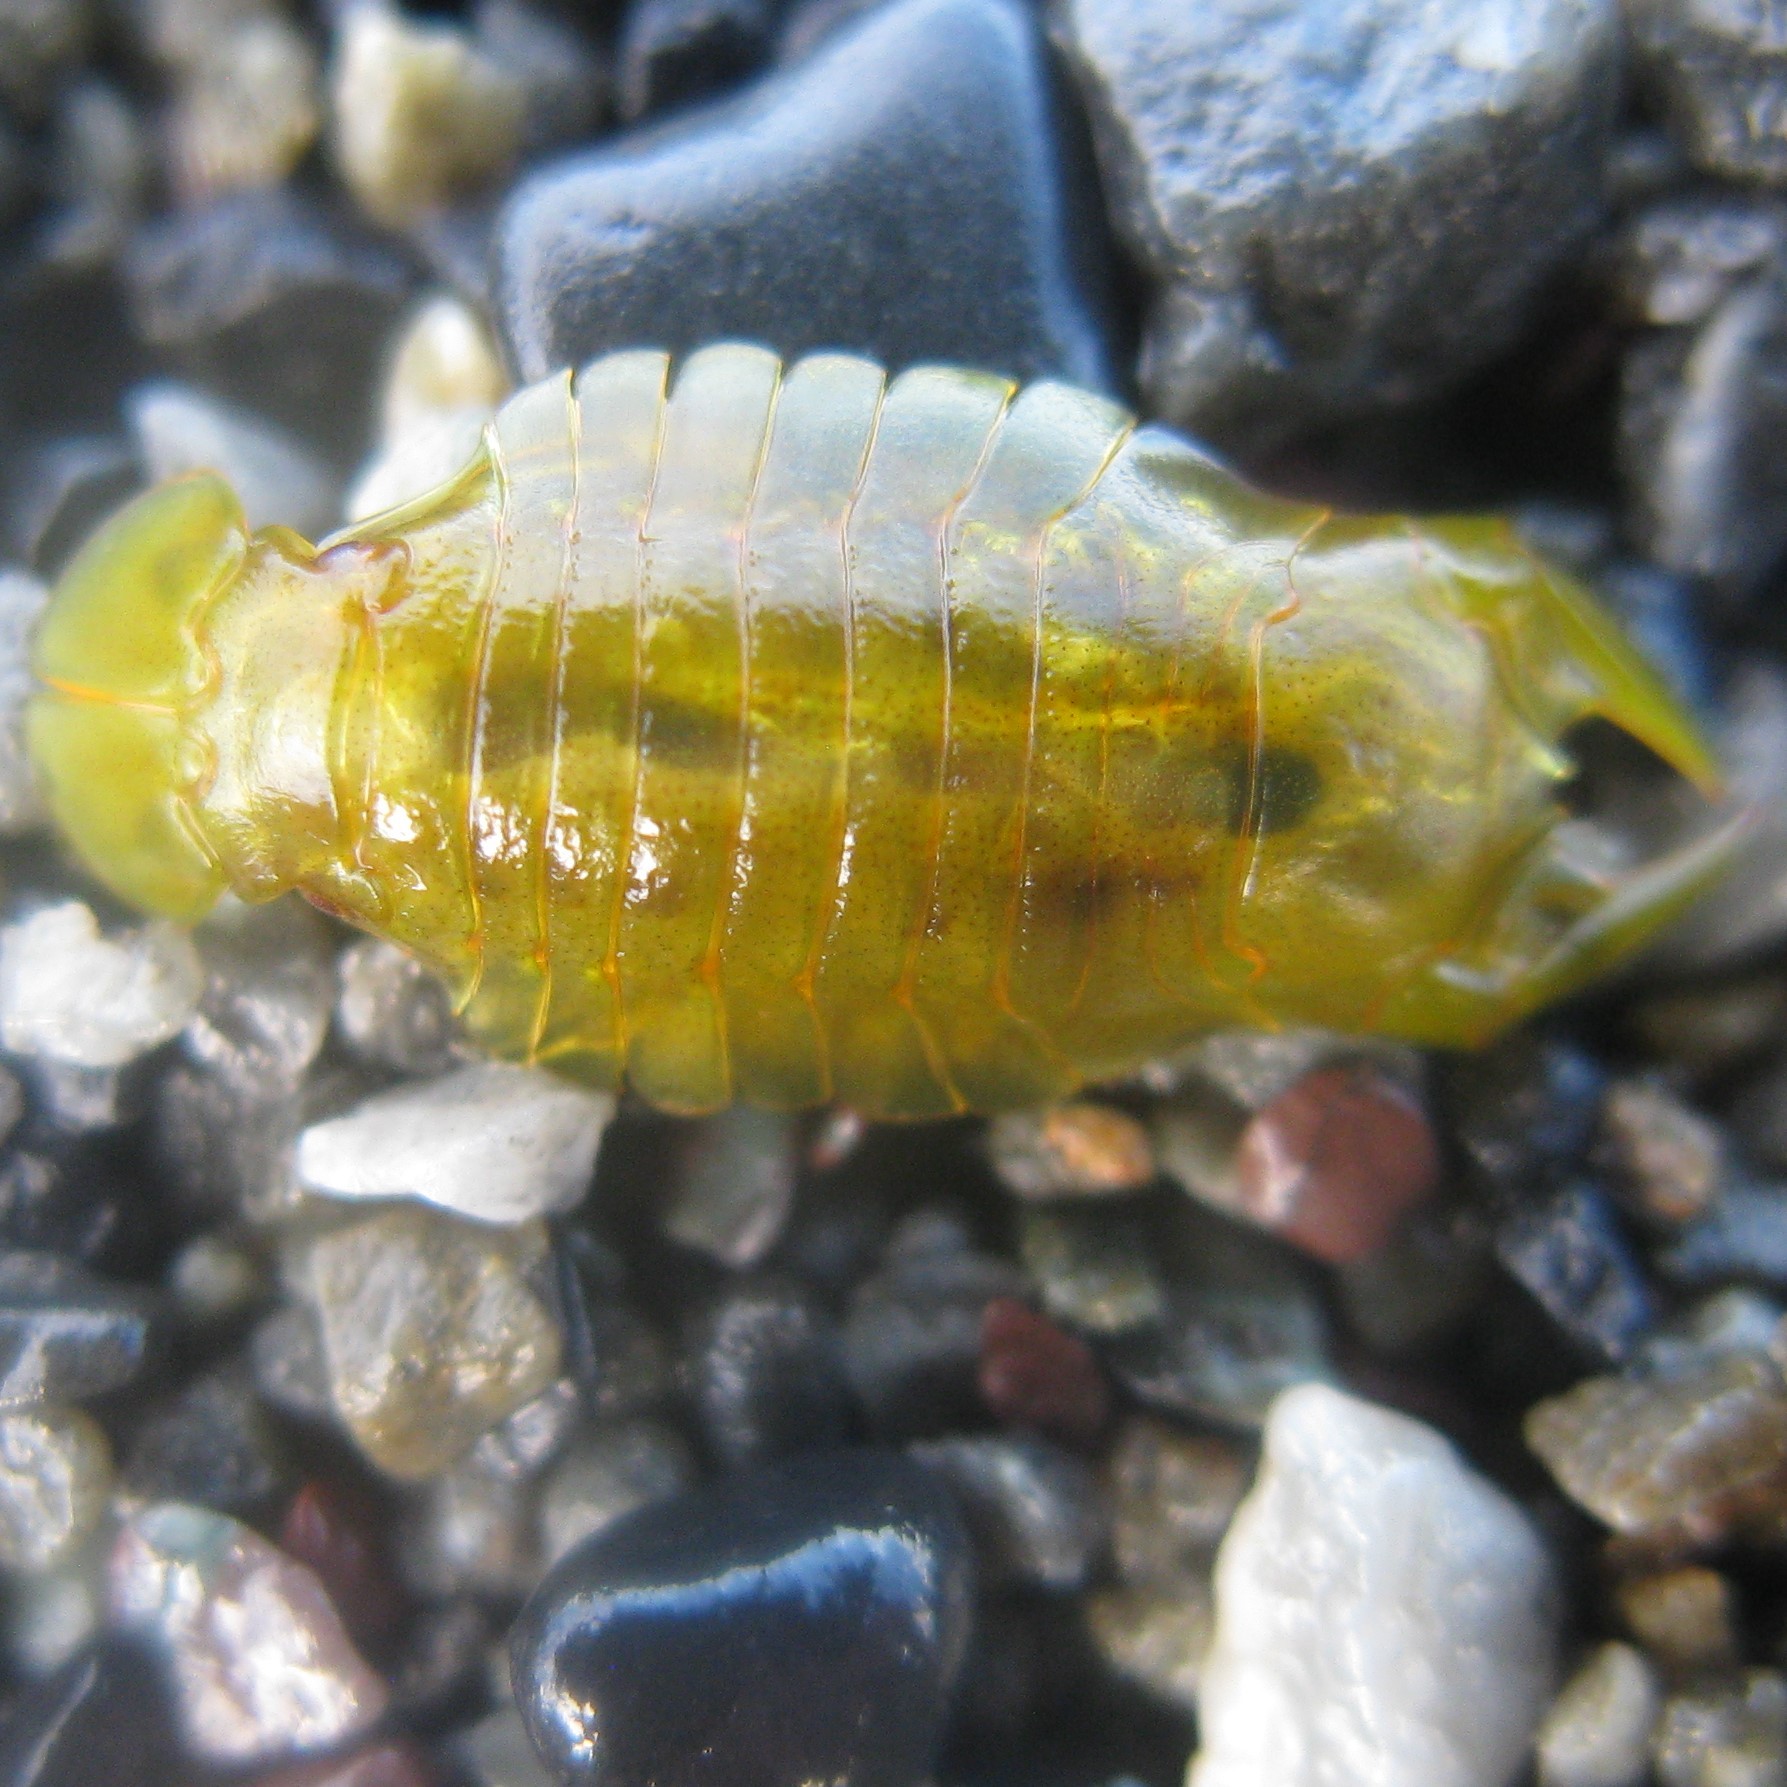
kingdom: Animalia
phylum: Arthropoda
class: Malacostraca
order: Isopoda
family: Sphaeromatidae
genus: Amphoroidea
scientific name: Amphoroidea longipes
